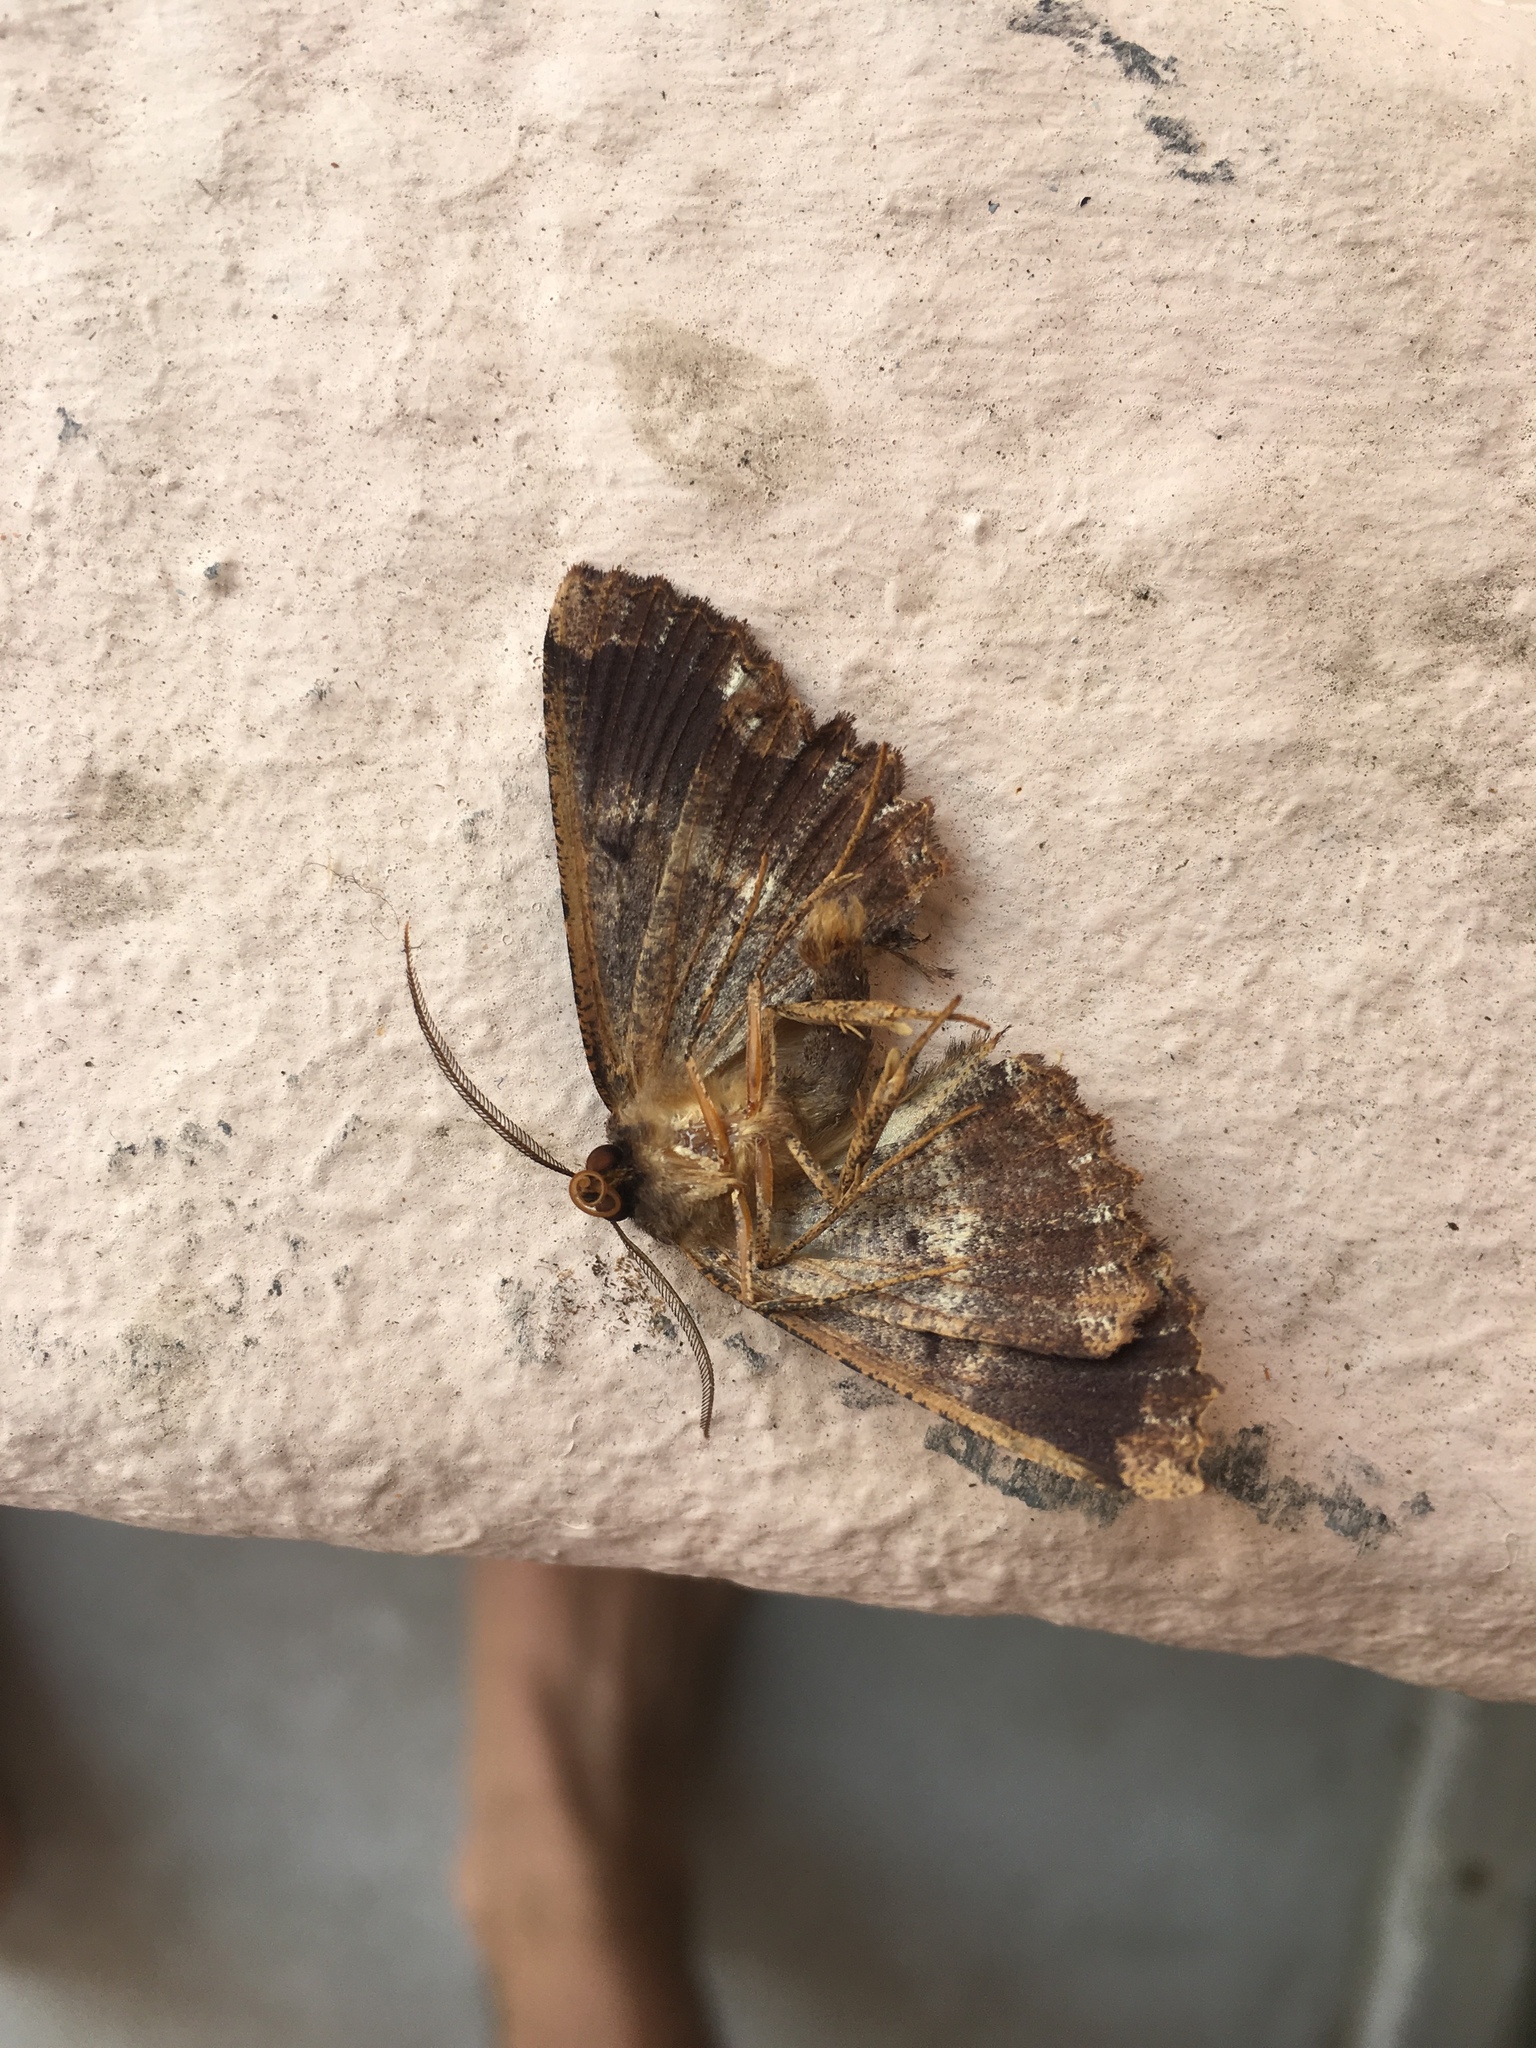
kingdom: Animalia
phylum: Arthropoda
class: Insecta
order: Lepidoptera
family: Geometridae
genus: Gellonia
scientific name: Gellonia dejectaria
